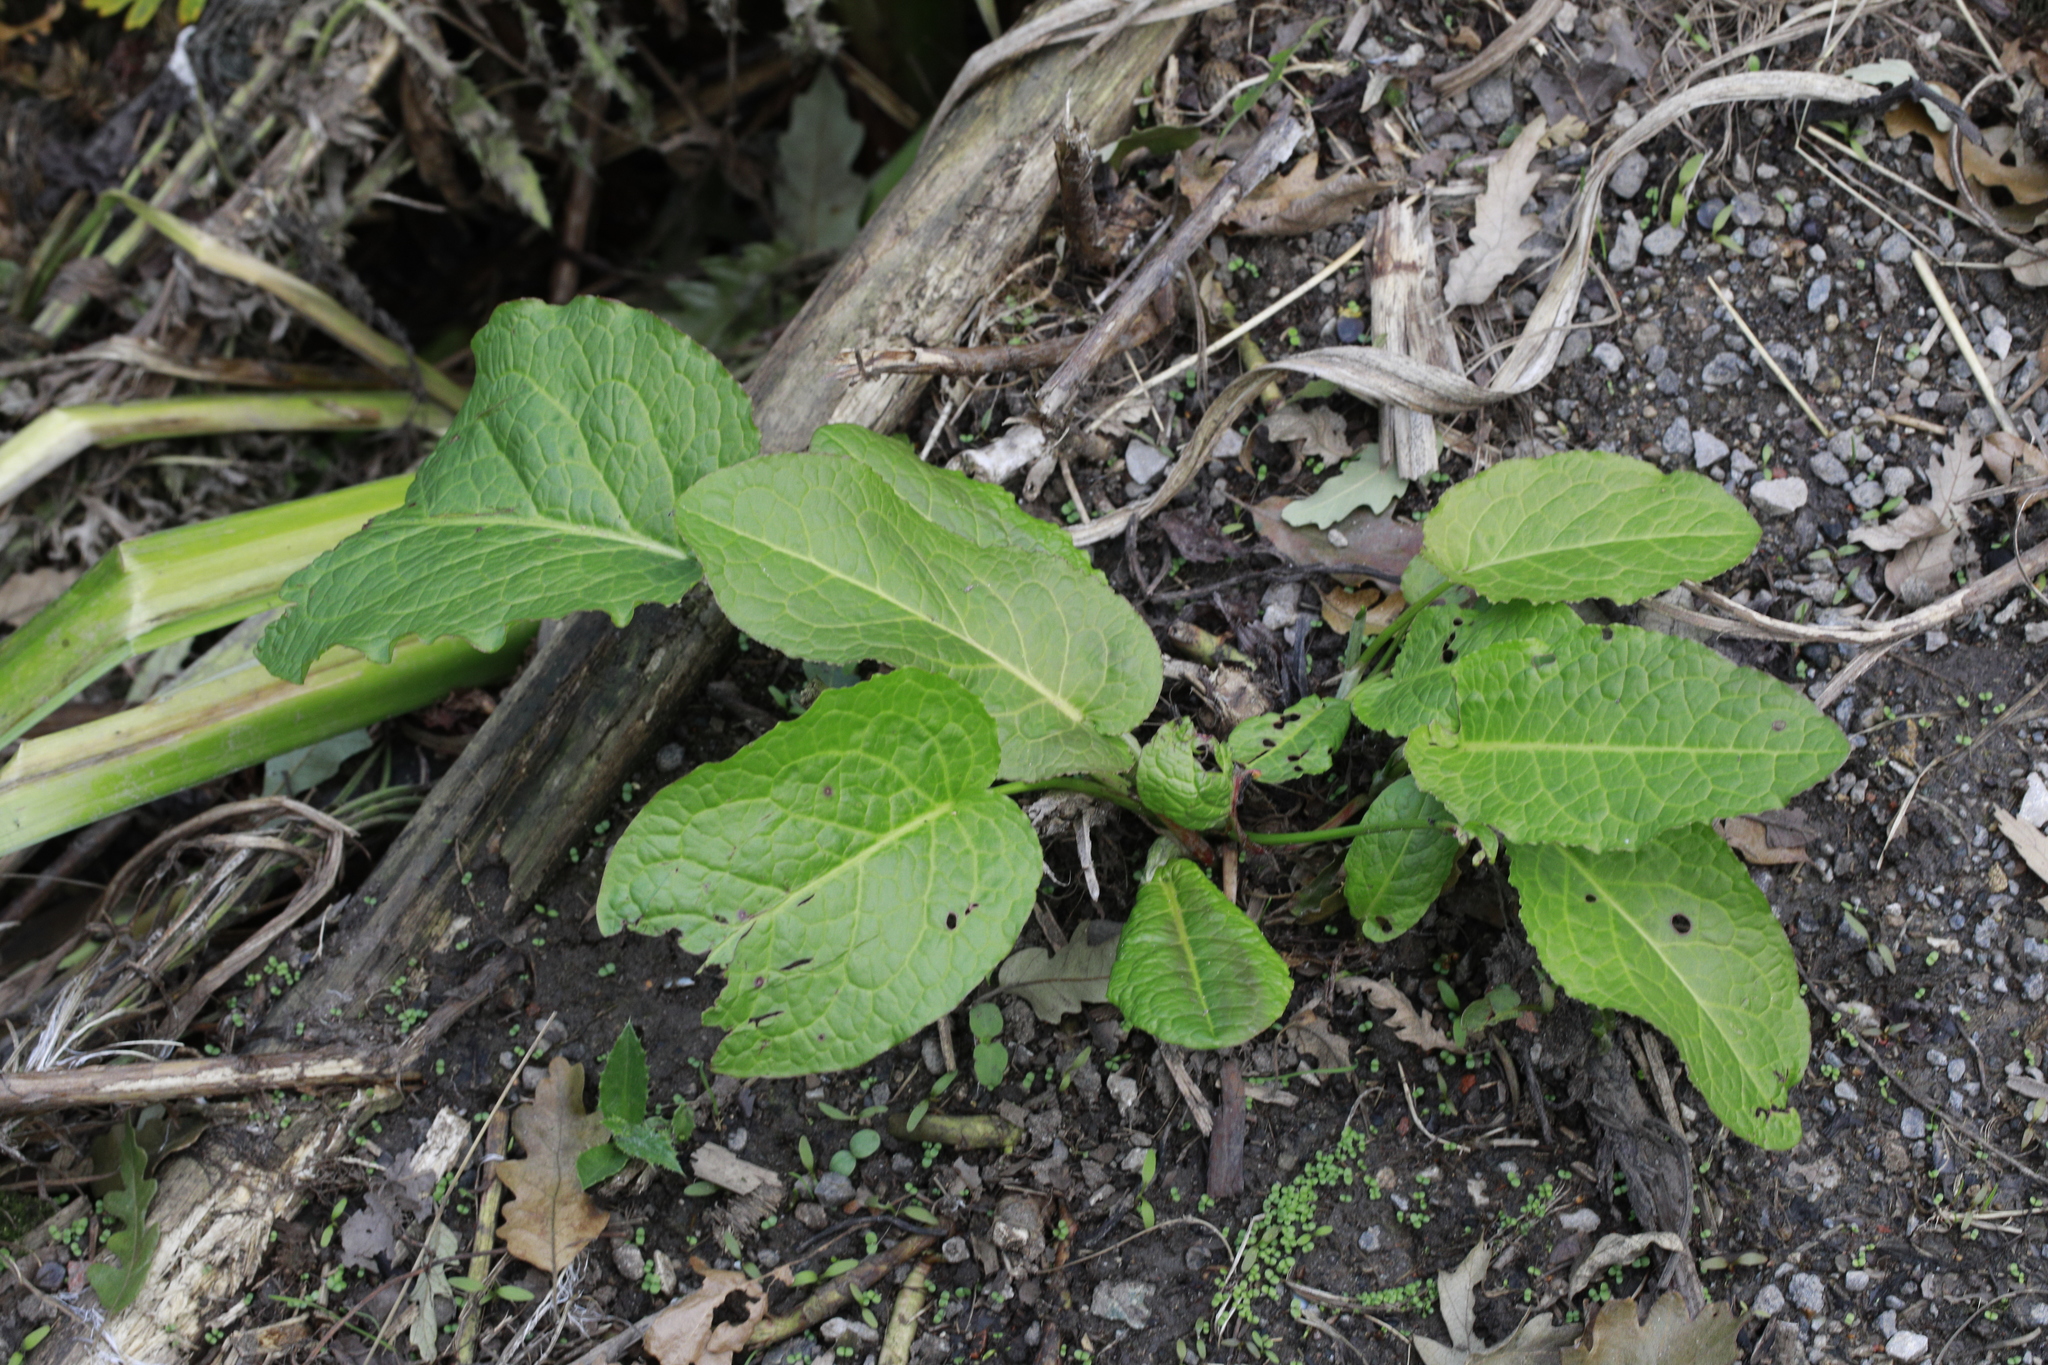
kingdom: Plantae
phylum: Tracheophyta
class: Magnoliopsida
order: Caryophyllales
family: Polygonaceae
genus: Rumex
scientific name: Rumex obtusifolius
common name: Bitter dock
